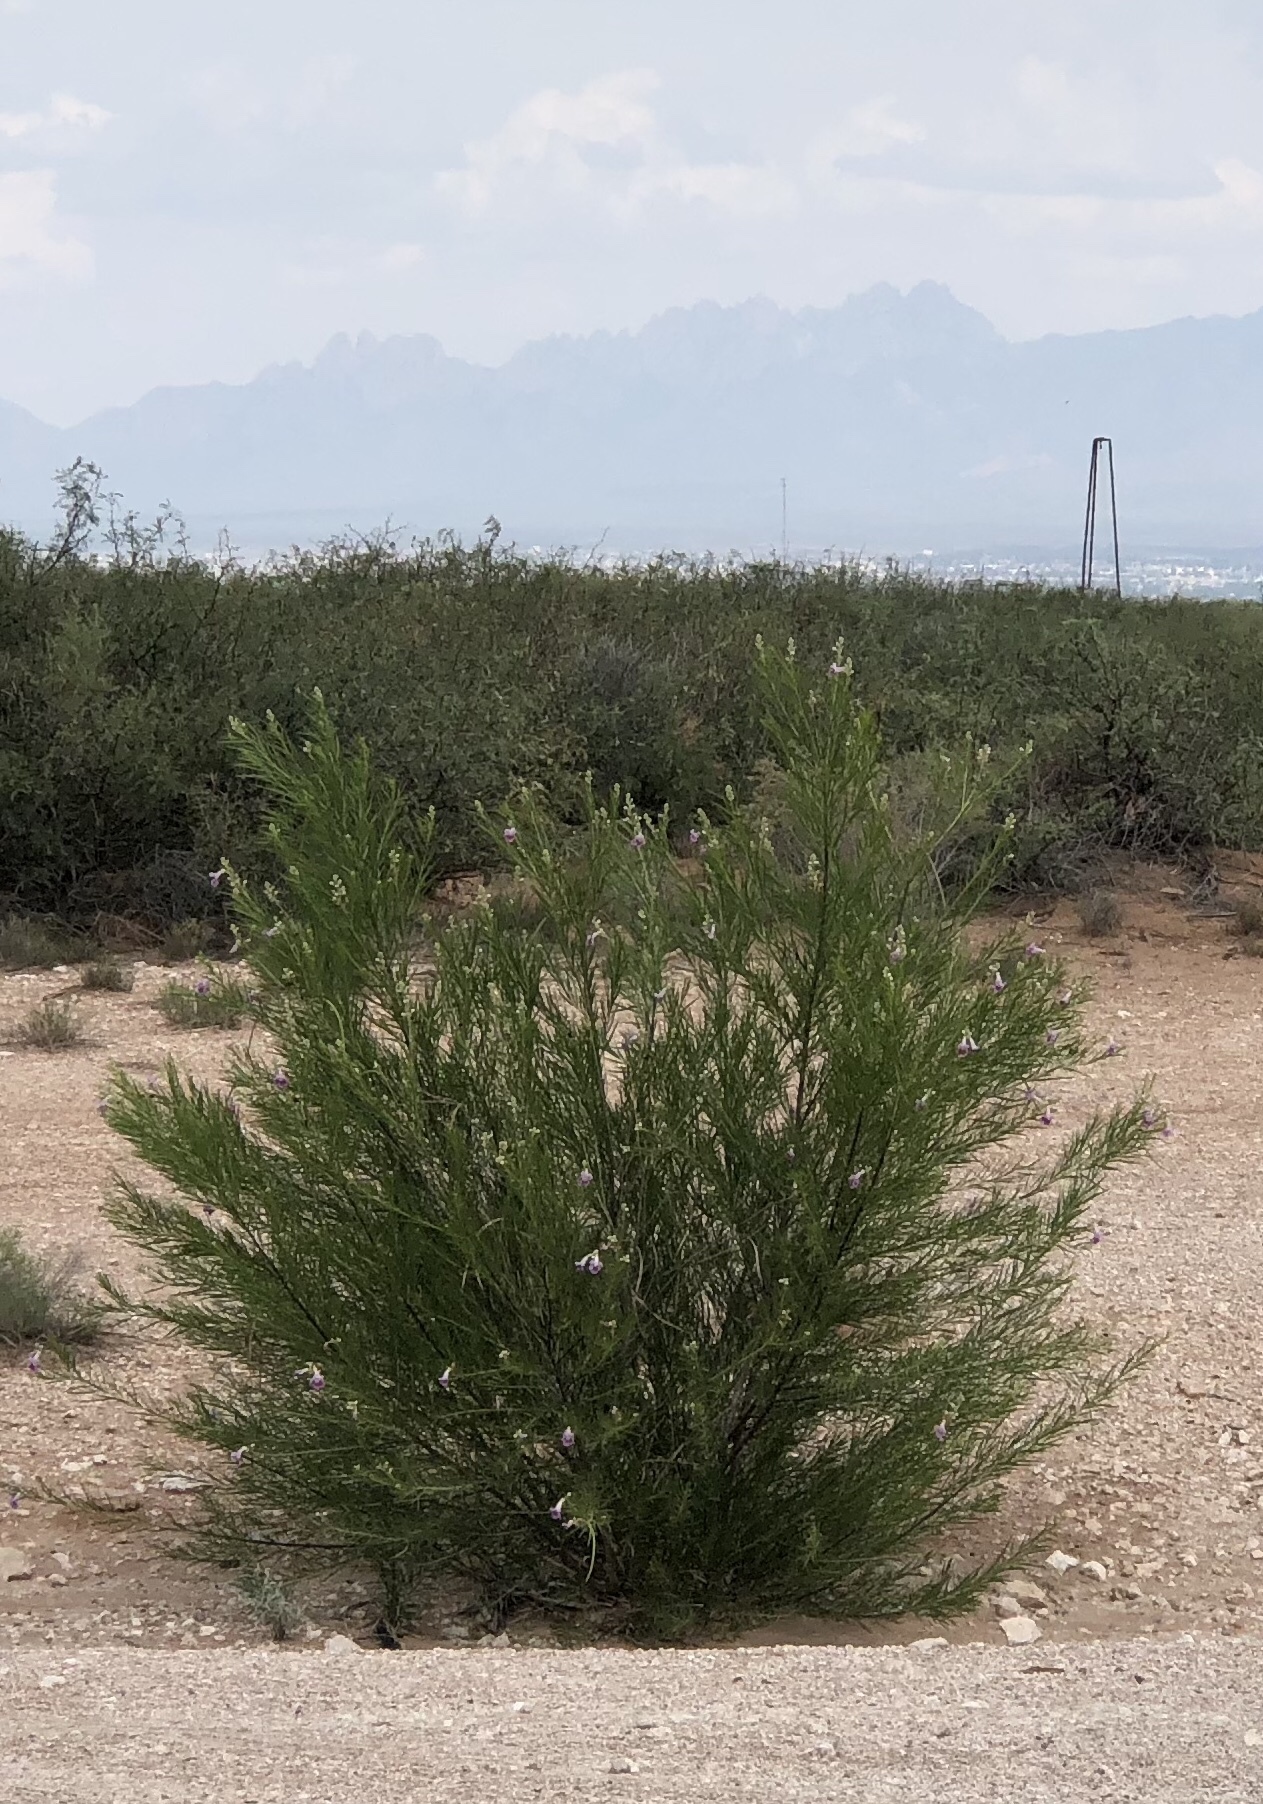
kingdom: Plantae
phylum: Tracheophyta
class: Magnoliopsida
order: Lamiales
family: Bignoniaceae
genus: Chilopsis
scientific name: Chilopsis linearis
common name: Desert-willow
